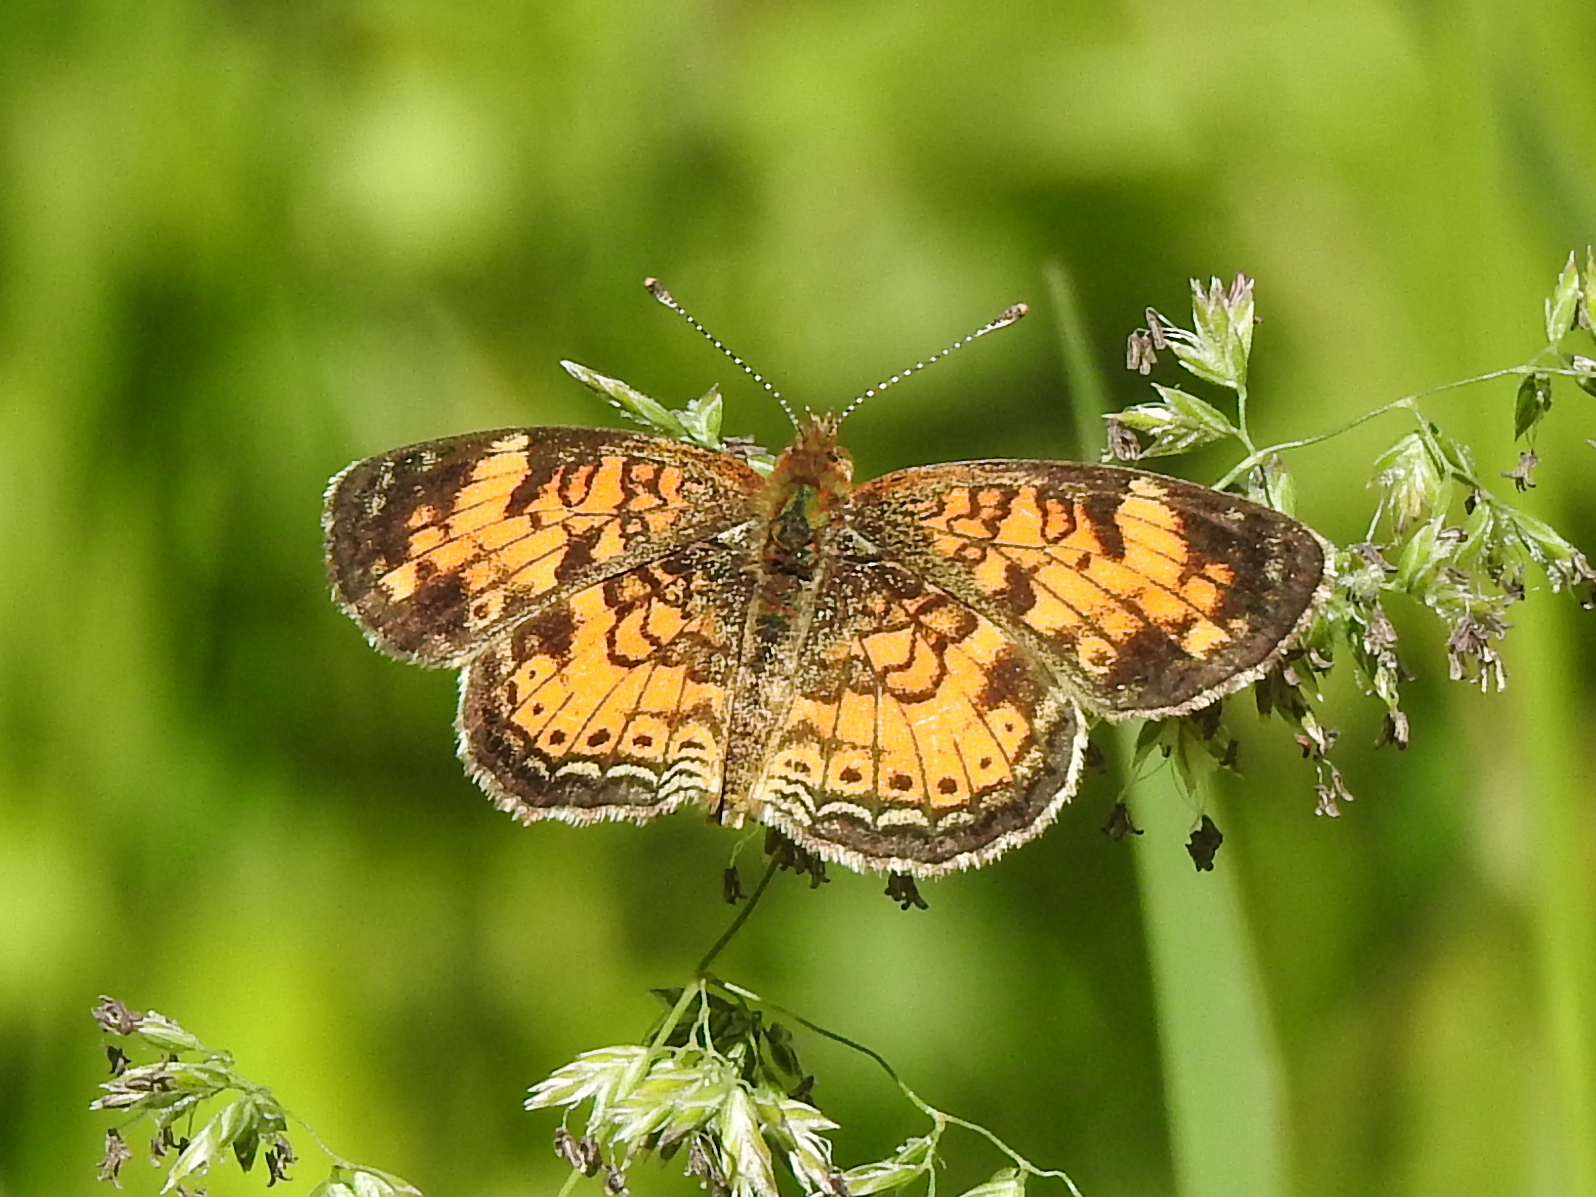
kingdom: Animalia
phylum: Arthropoda
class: Insecta
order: Lepidoptera
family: Nymphalidae
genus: Phyciodes
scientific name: Phyciodes tharos
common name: Pearl crescent
